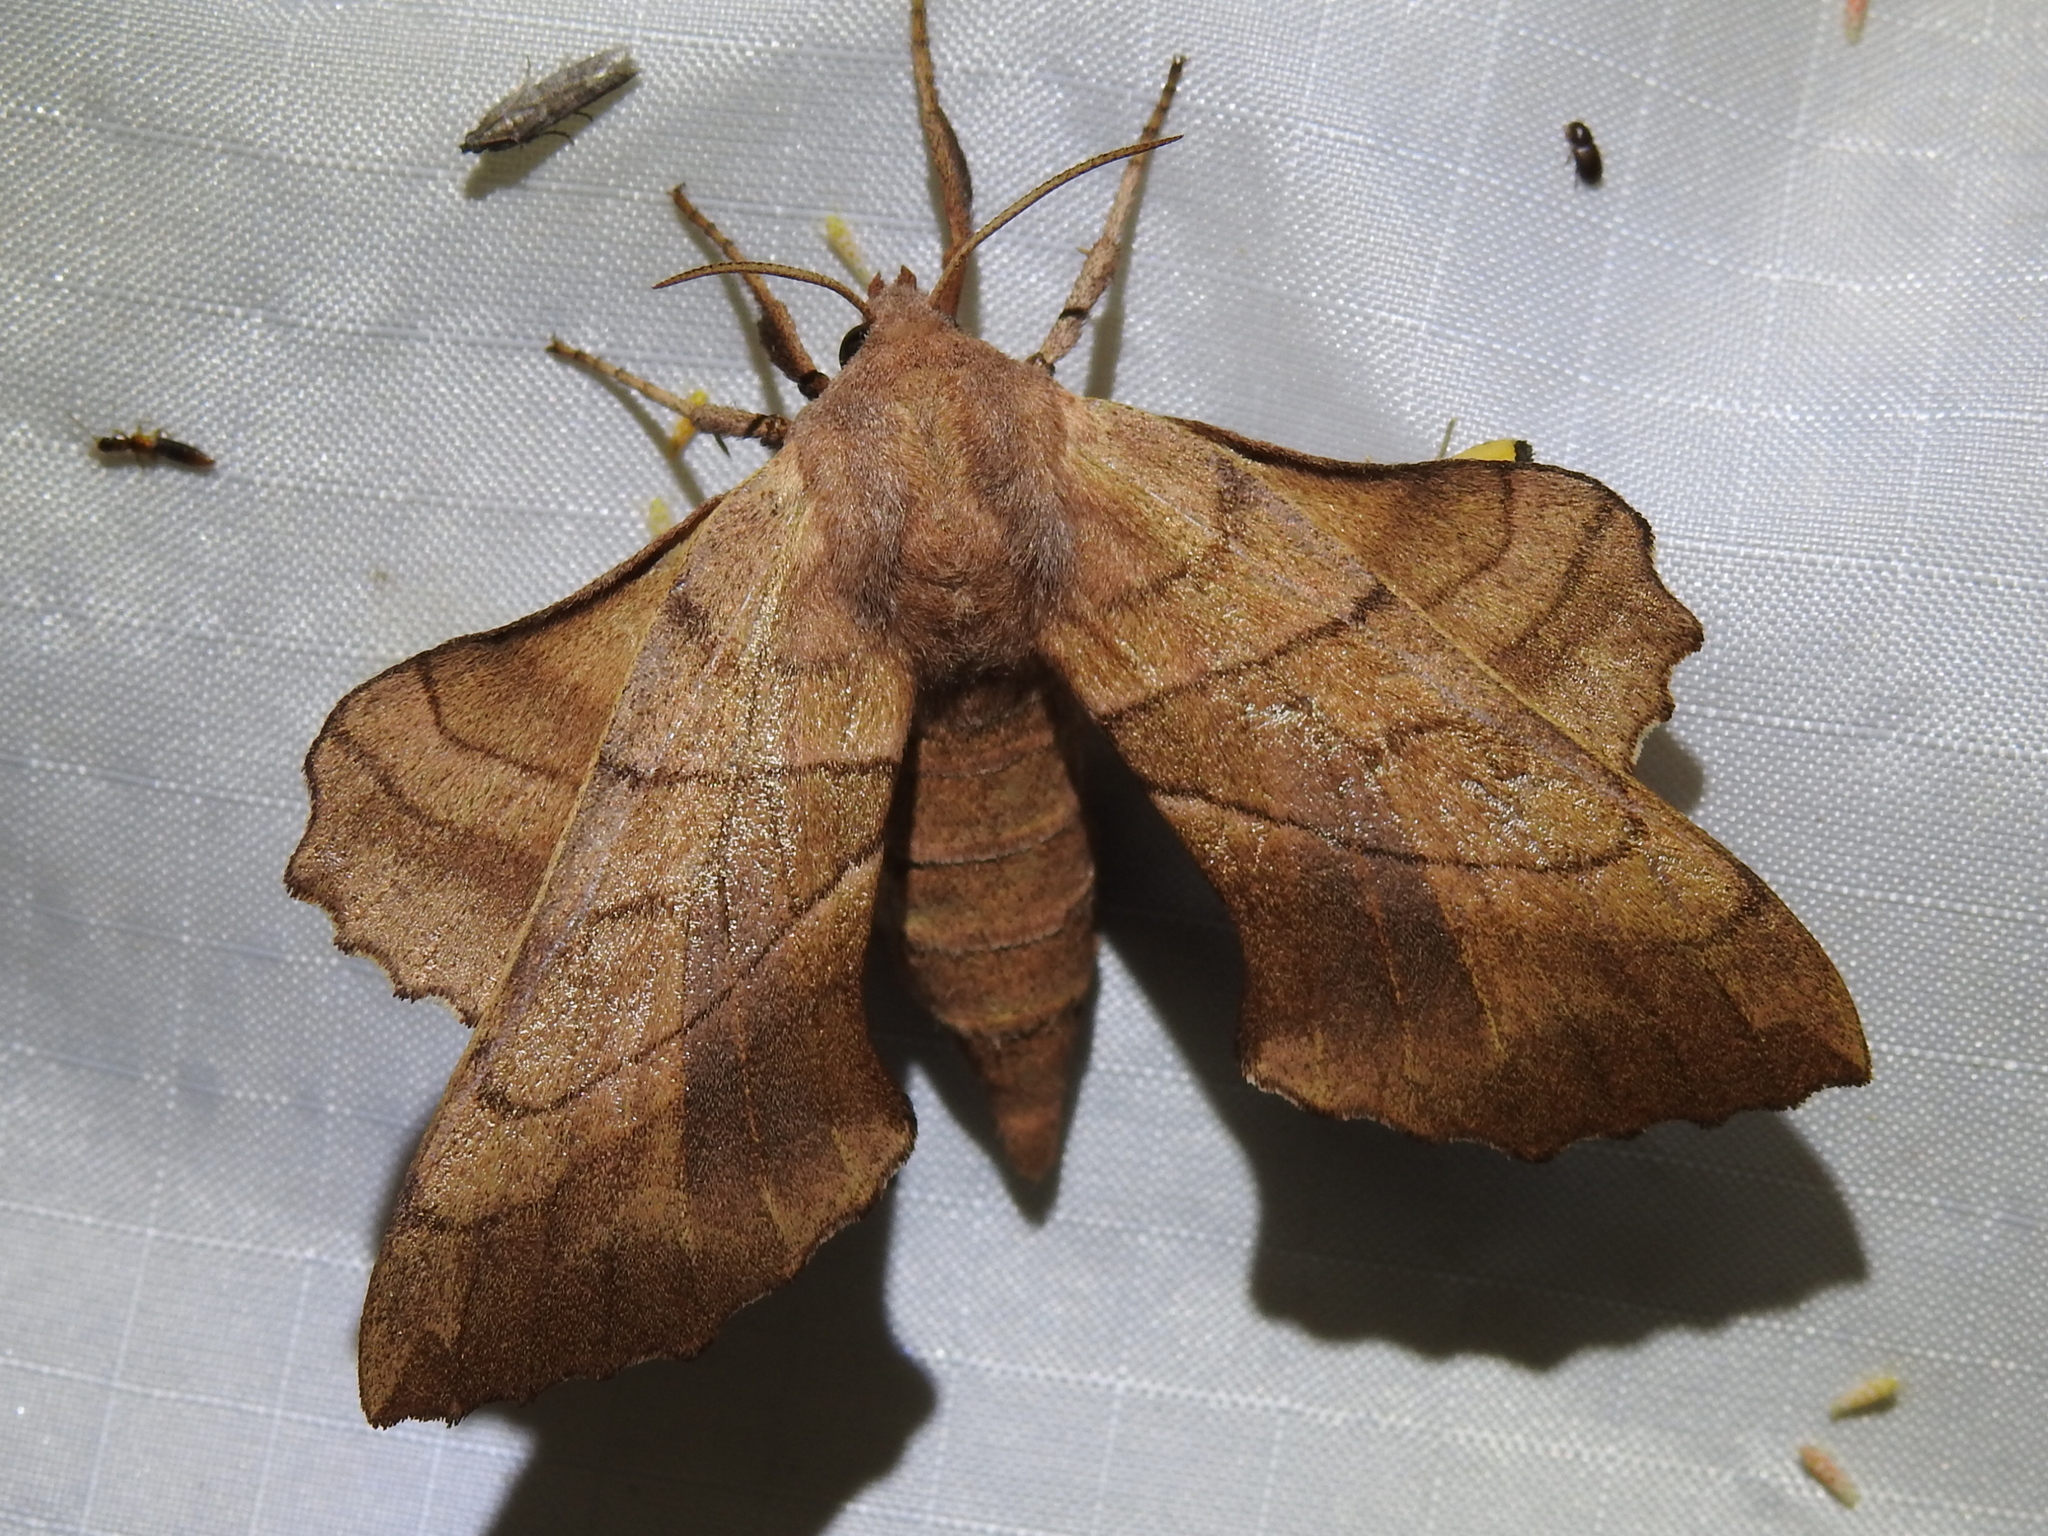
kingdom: Animalia
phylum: Arthropoda
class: Insecta
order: Lepidoptera
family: Sphingidae
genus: Amorpha
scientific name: Amorpha juglandis
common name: Walnut sphinx
